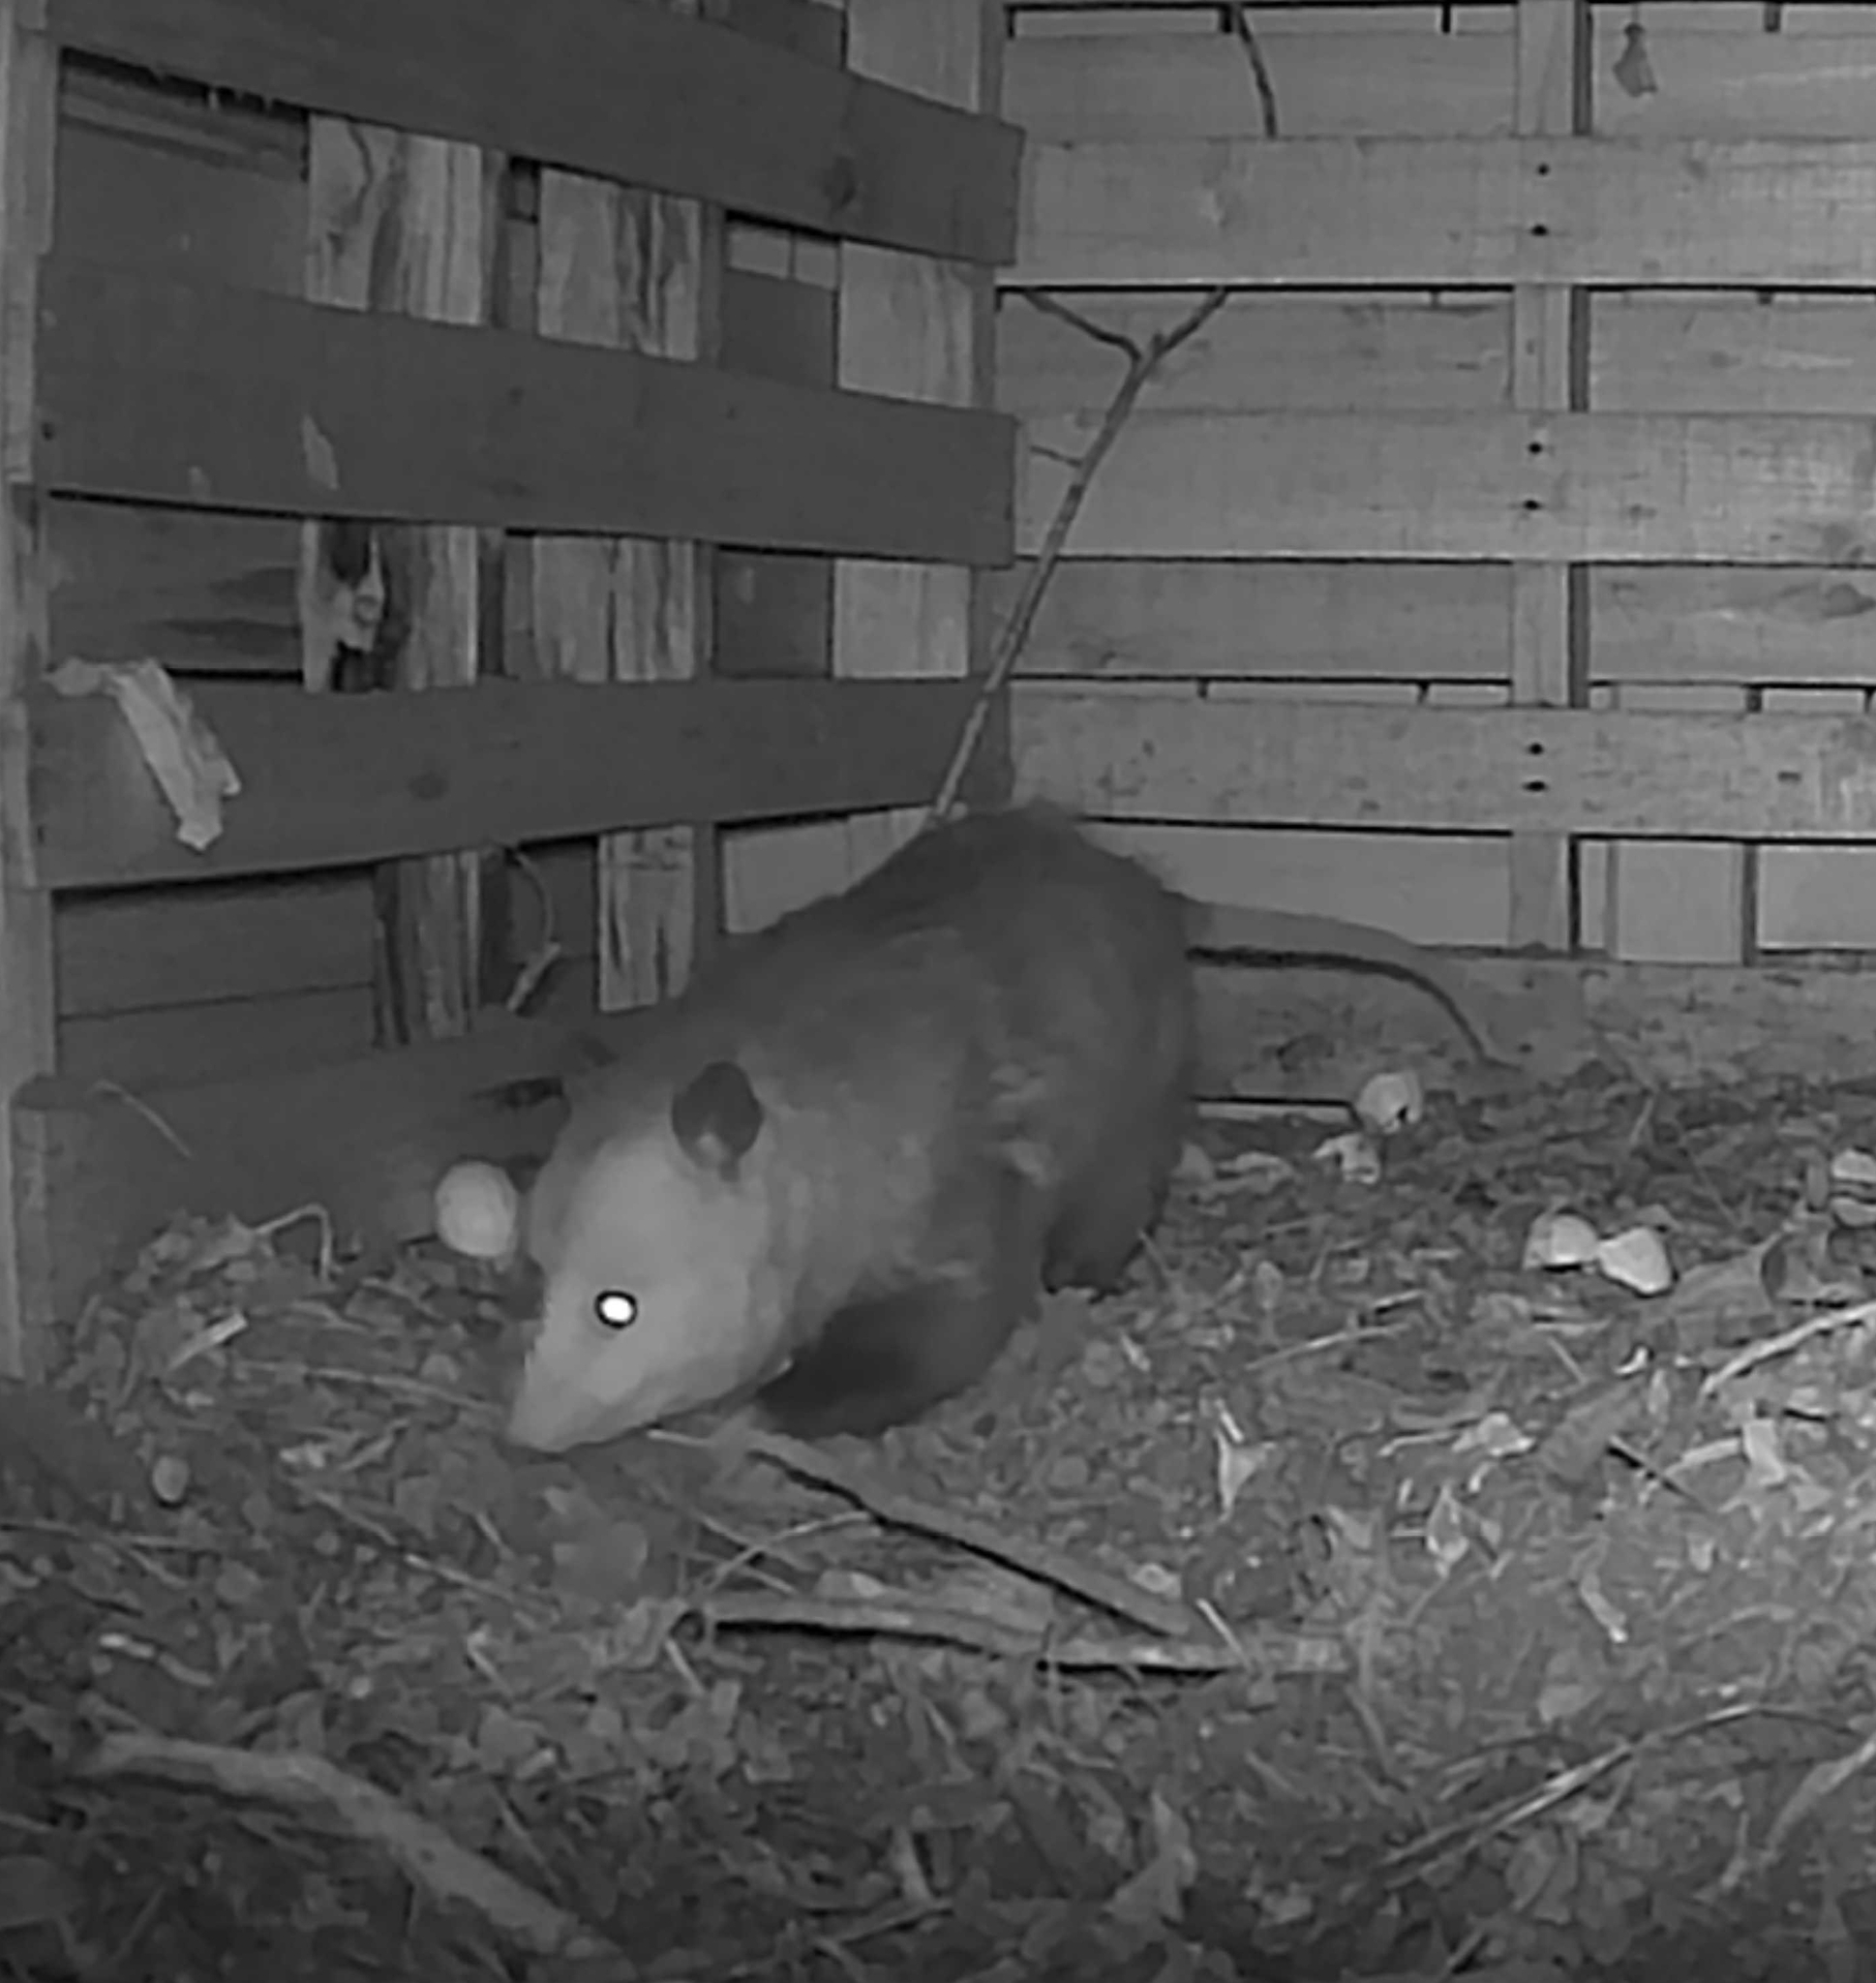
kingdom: Animalia
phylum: Chordata
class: Mammalia
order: Didelphimorphia
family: Didelphidae
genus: Didelphis
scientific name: Didelphis virginiana
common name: Virginia opossum
